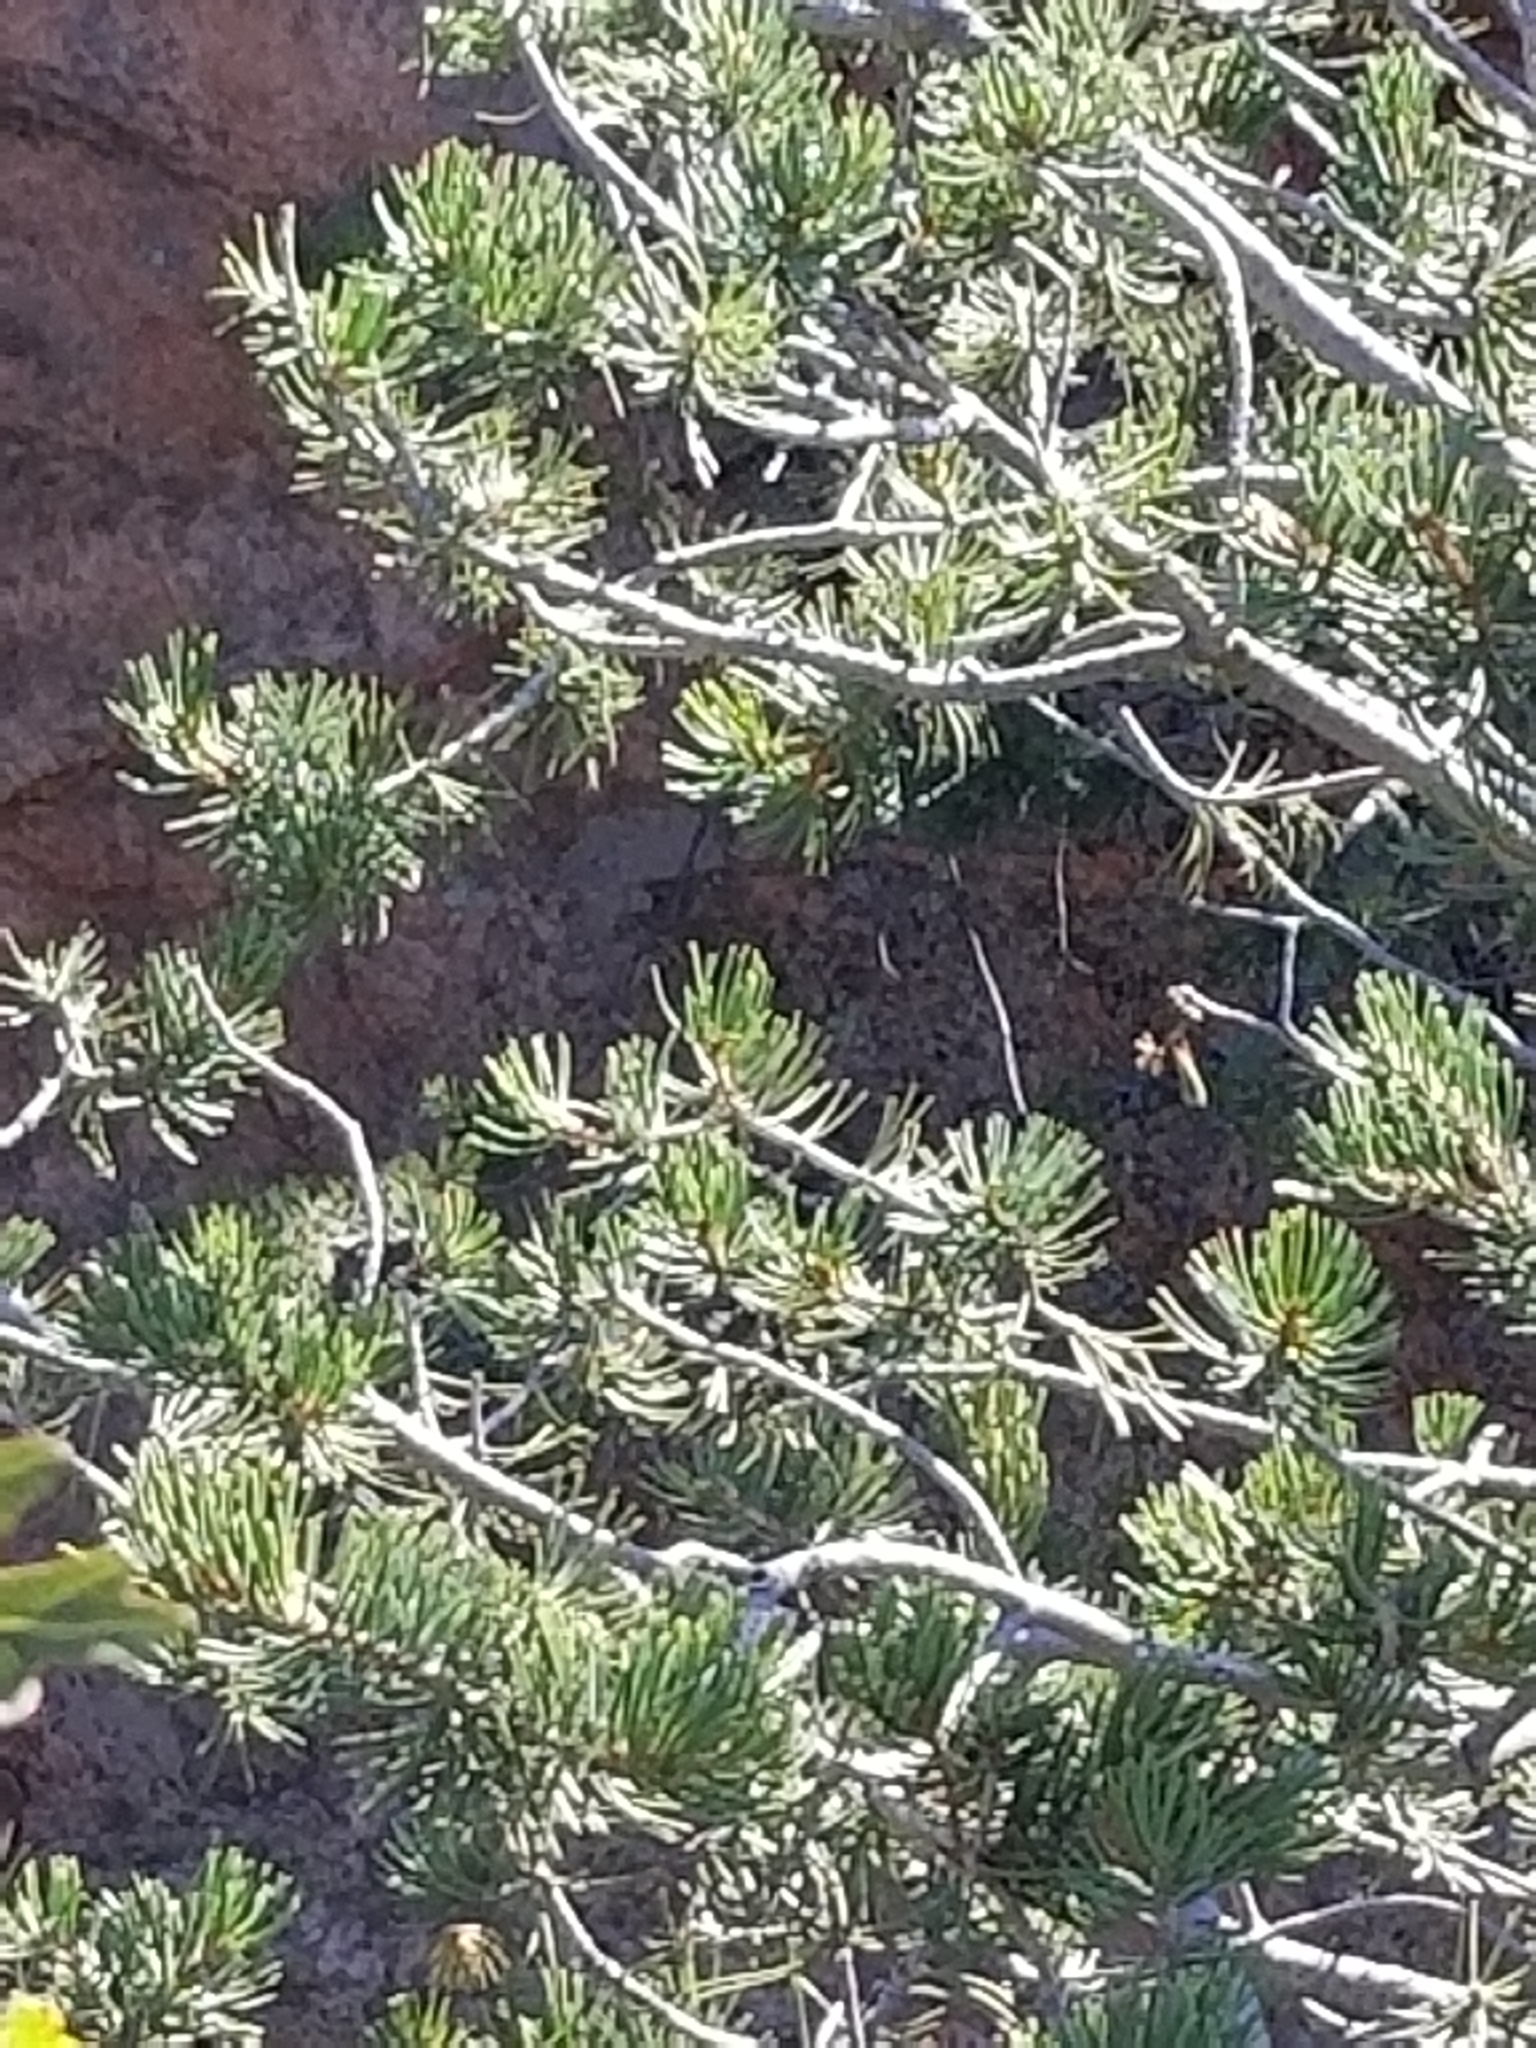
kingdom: Plantae
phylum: Tracheophyta
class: Pinopsida
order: Pinales
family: Pinaceae
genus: Pinus
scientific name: Pinus edulis
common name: Colorado pinyon
